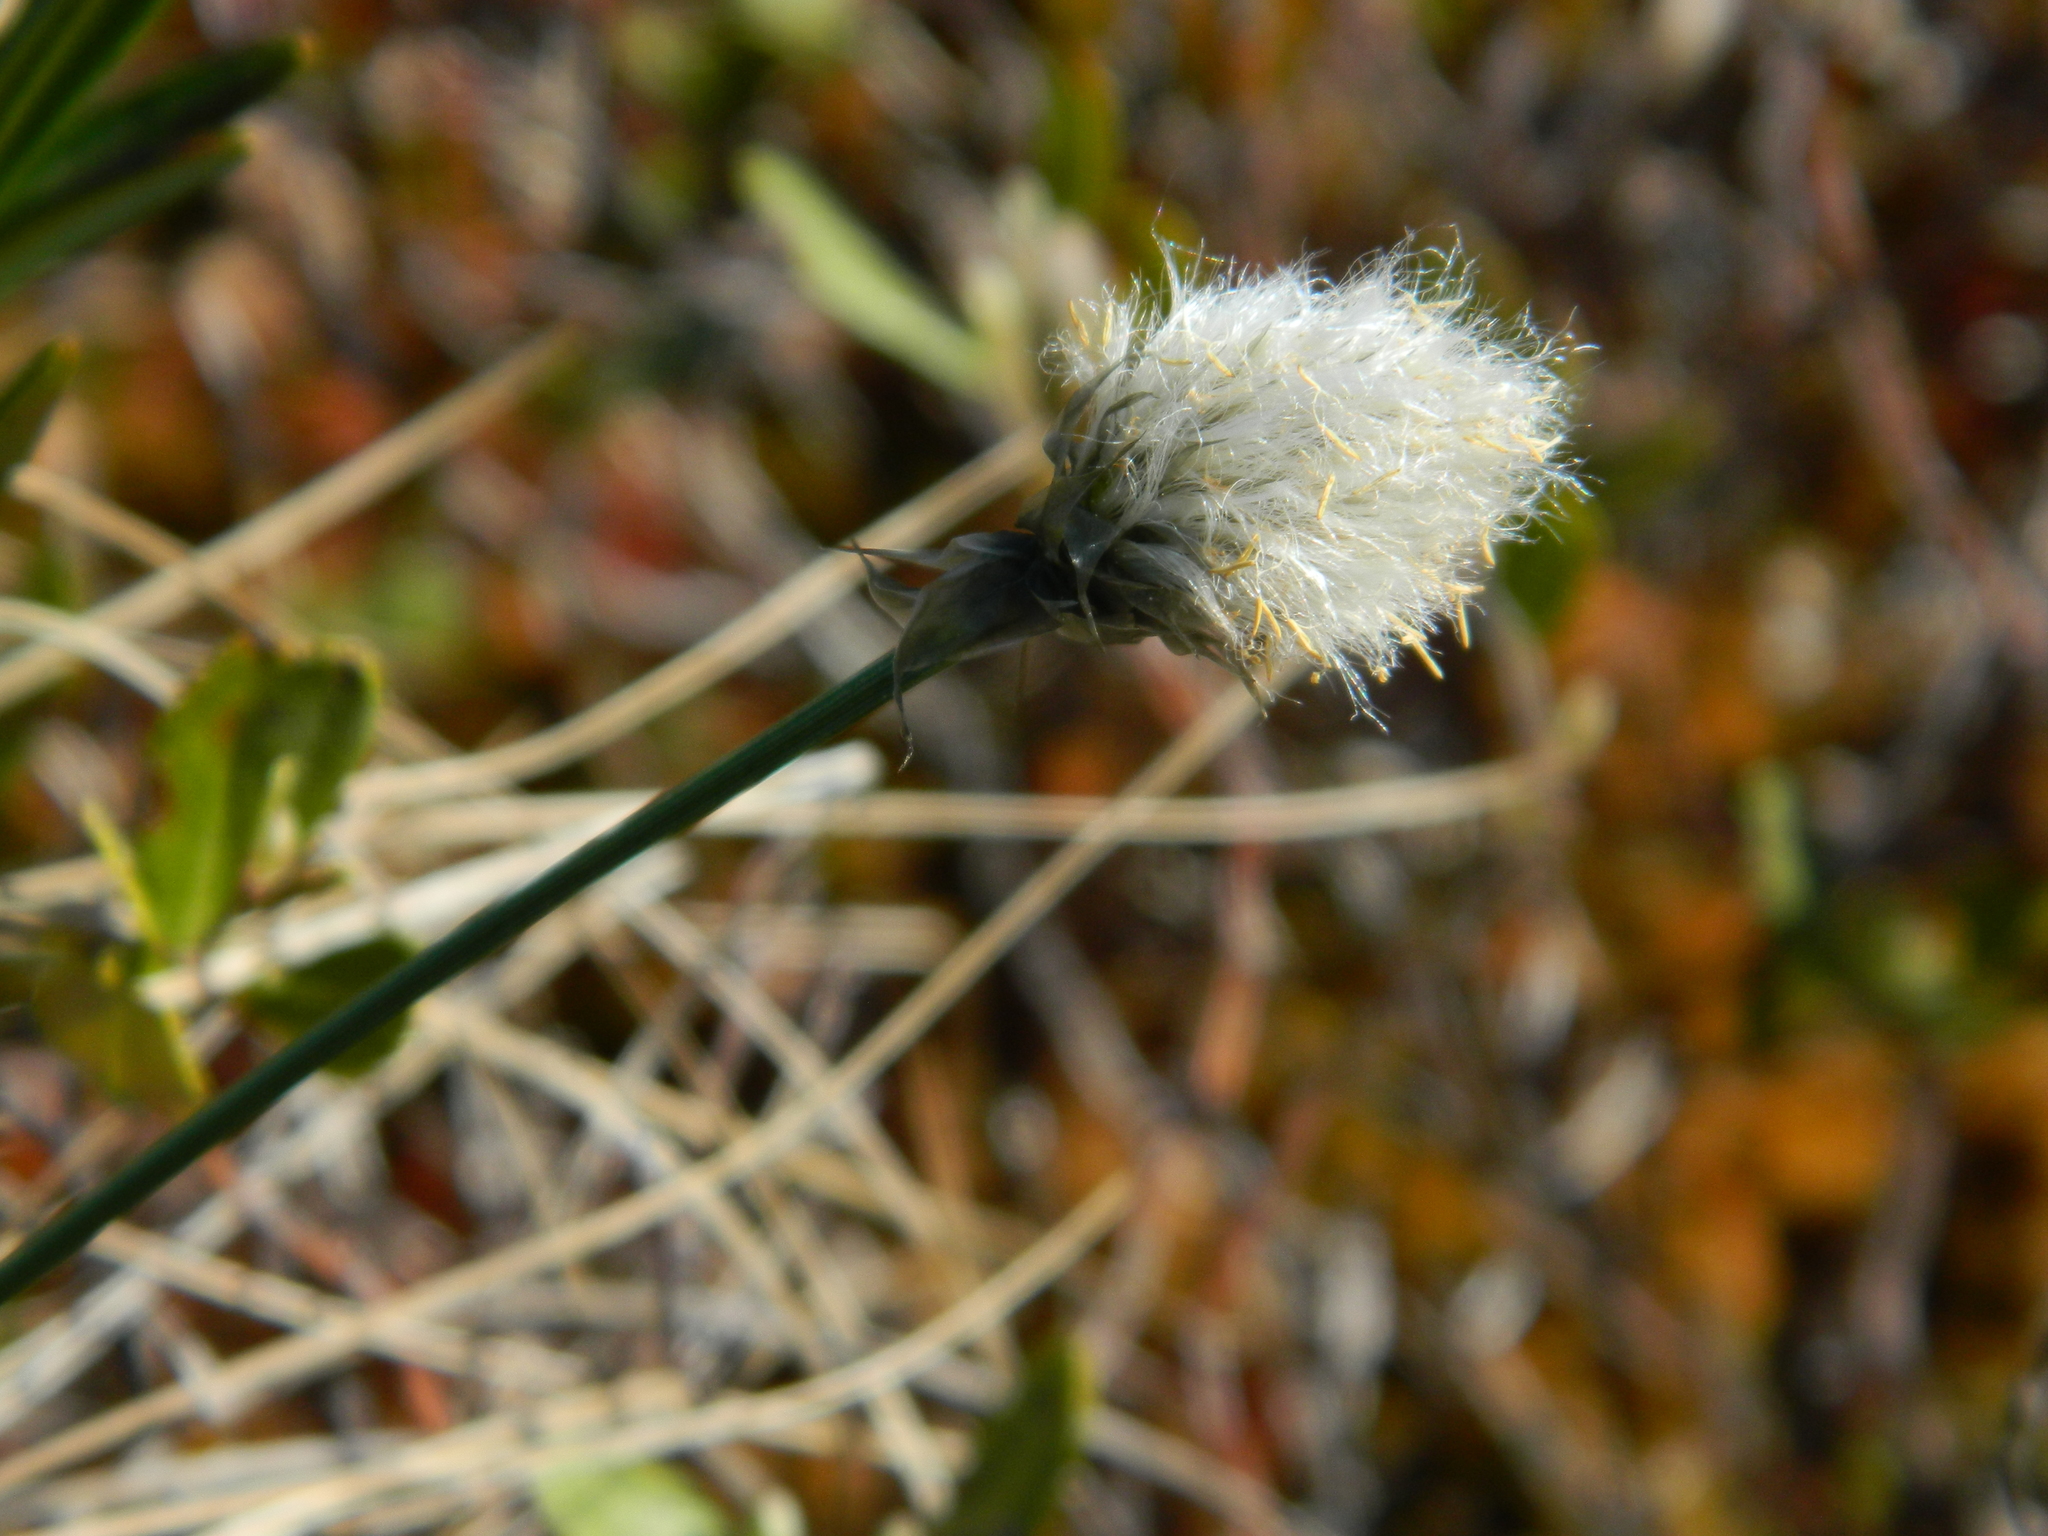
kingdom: Plantae
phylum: Tracheophyta
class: Liliopsida
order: Poales
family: Cyperaceae
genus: Eriophorum
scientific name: Eriophorum vaginatum
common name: Hare's-tail cottongrass
